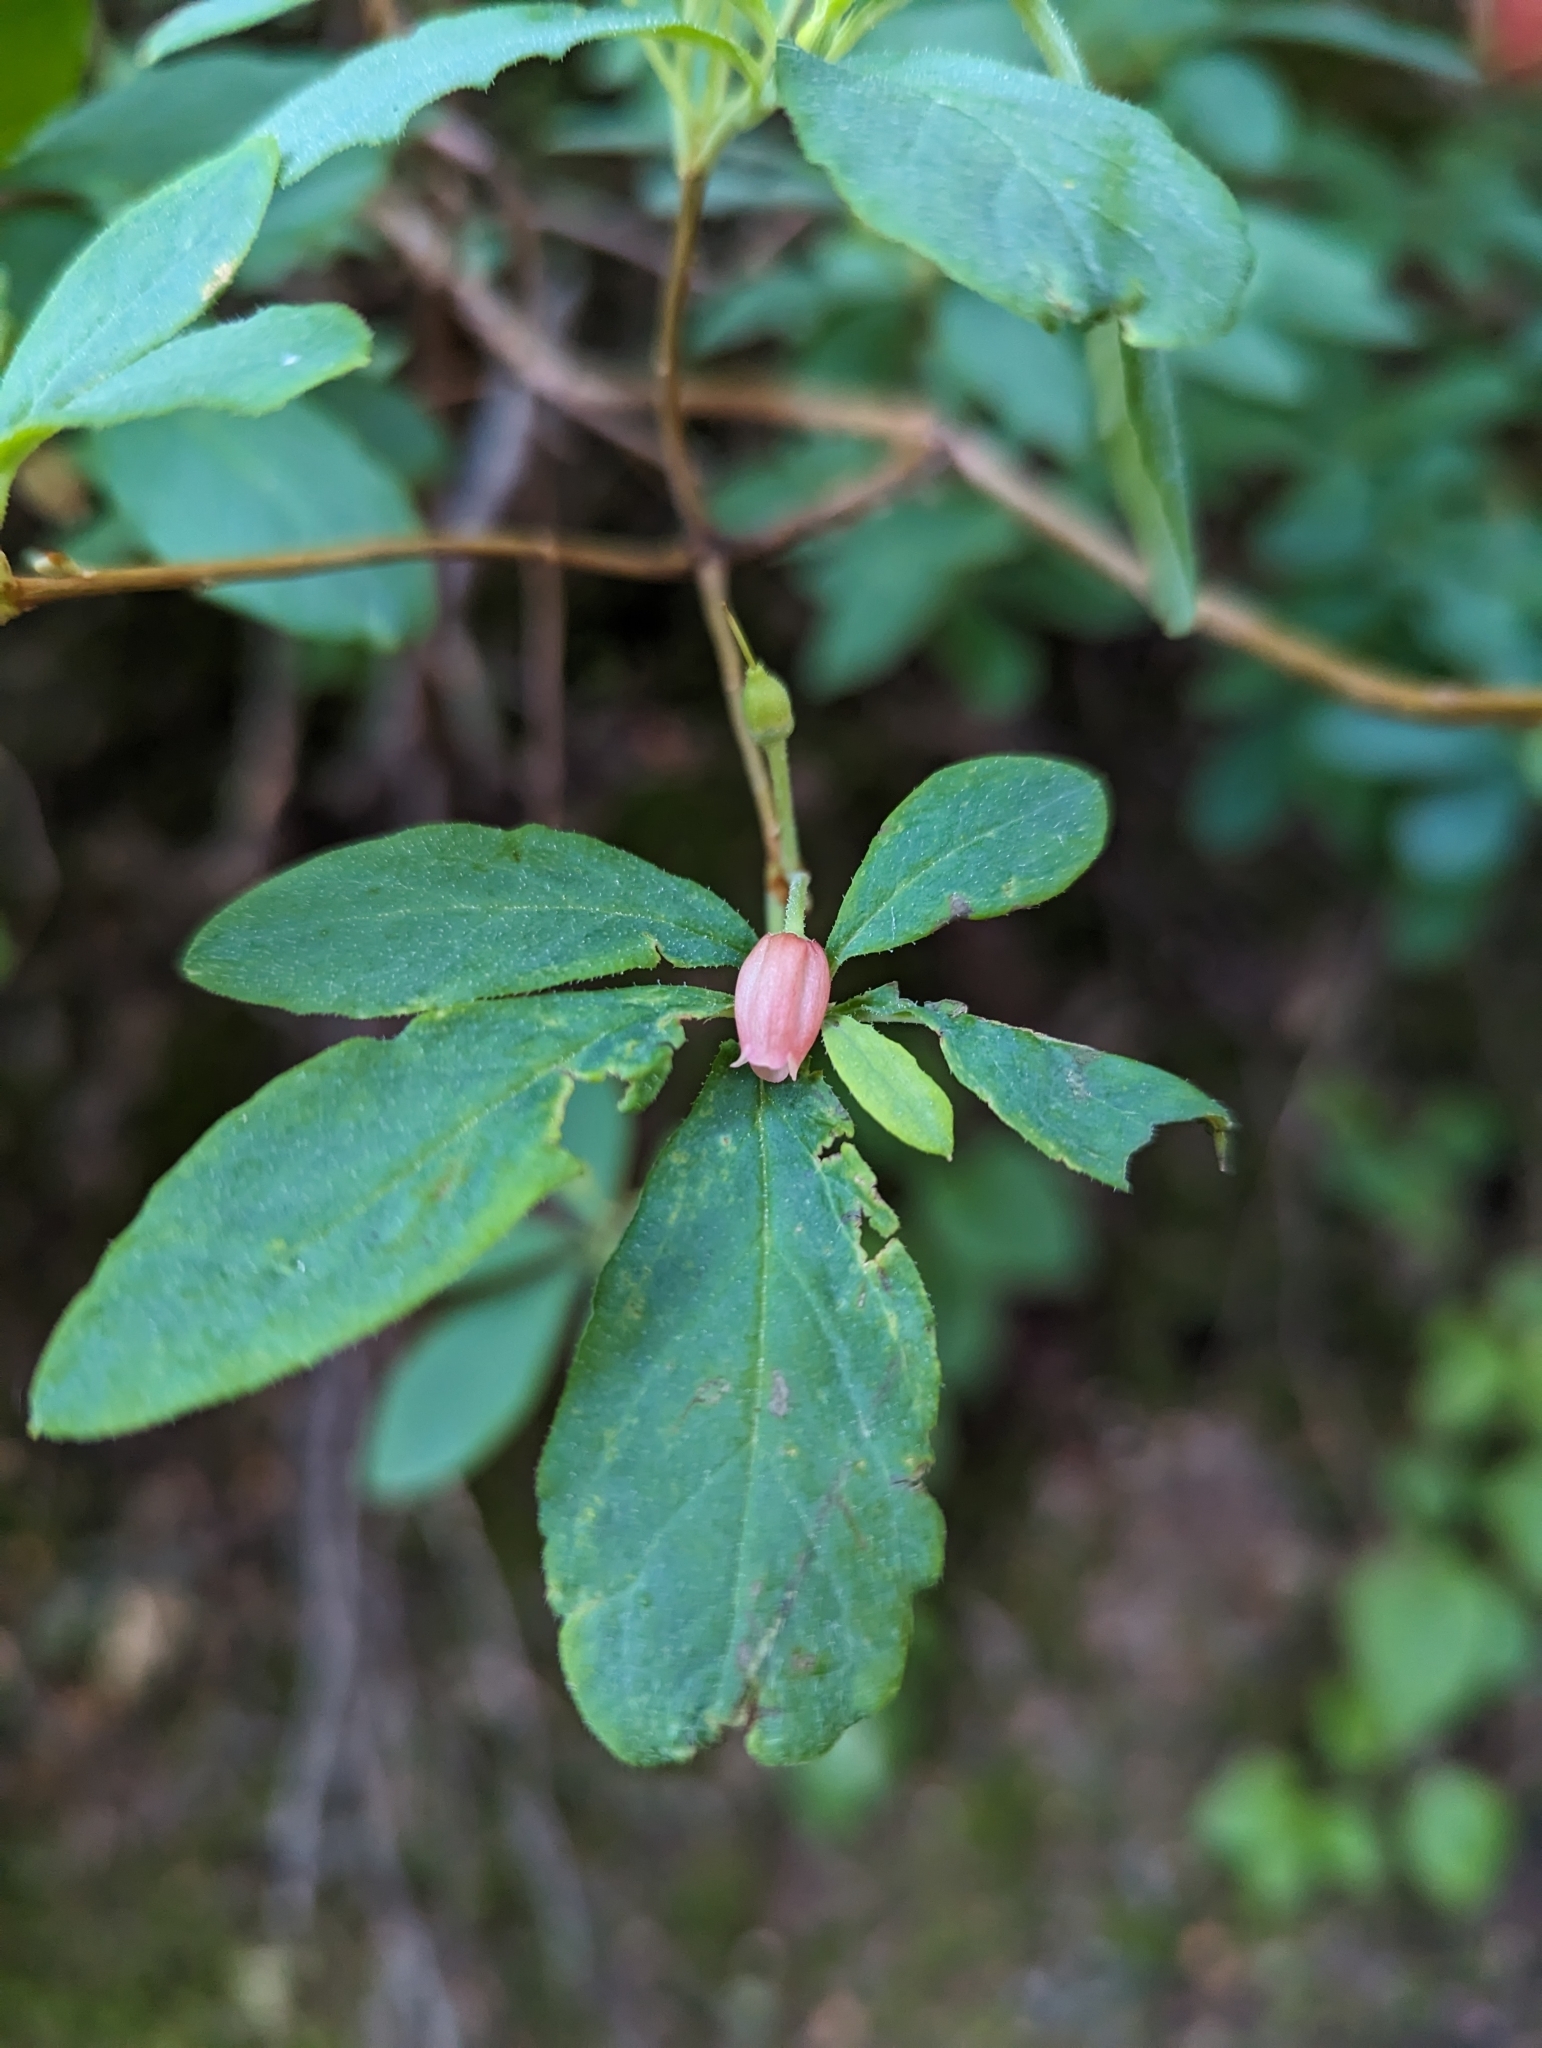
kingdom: Plantae
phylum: Tracheophyta
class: Magnoliopsida
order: Ericales
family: Ericaceae
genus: Rhododendron
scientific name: Rhododendron menziesii
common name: Pacific menziesia
